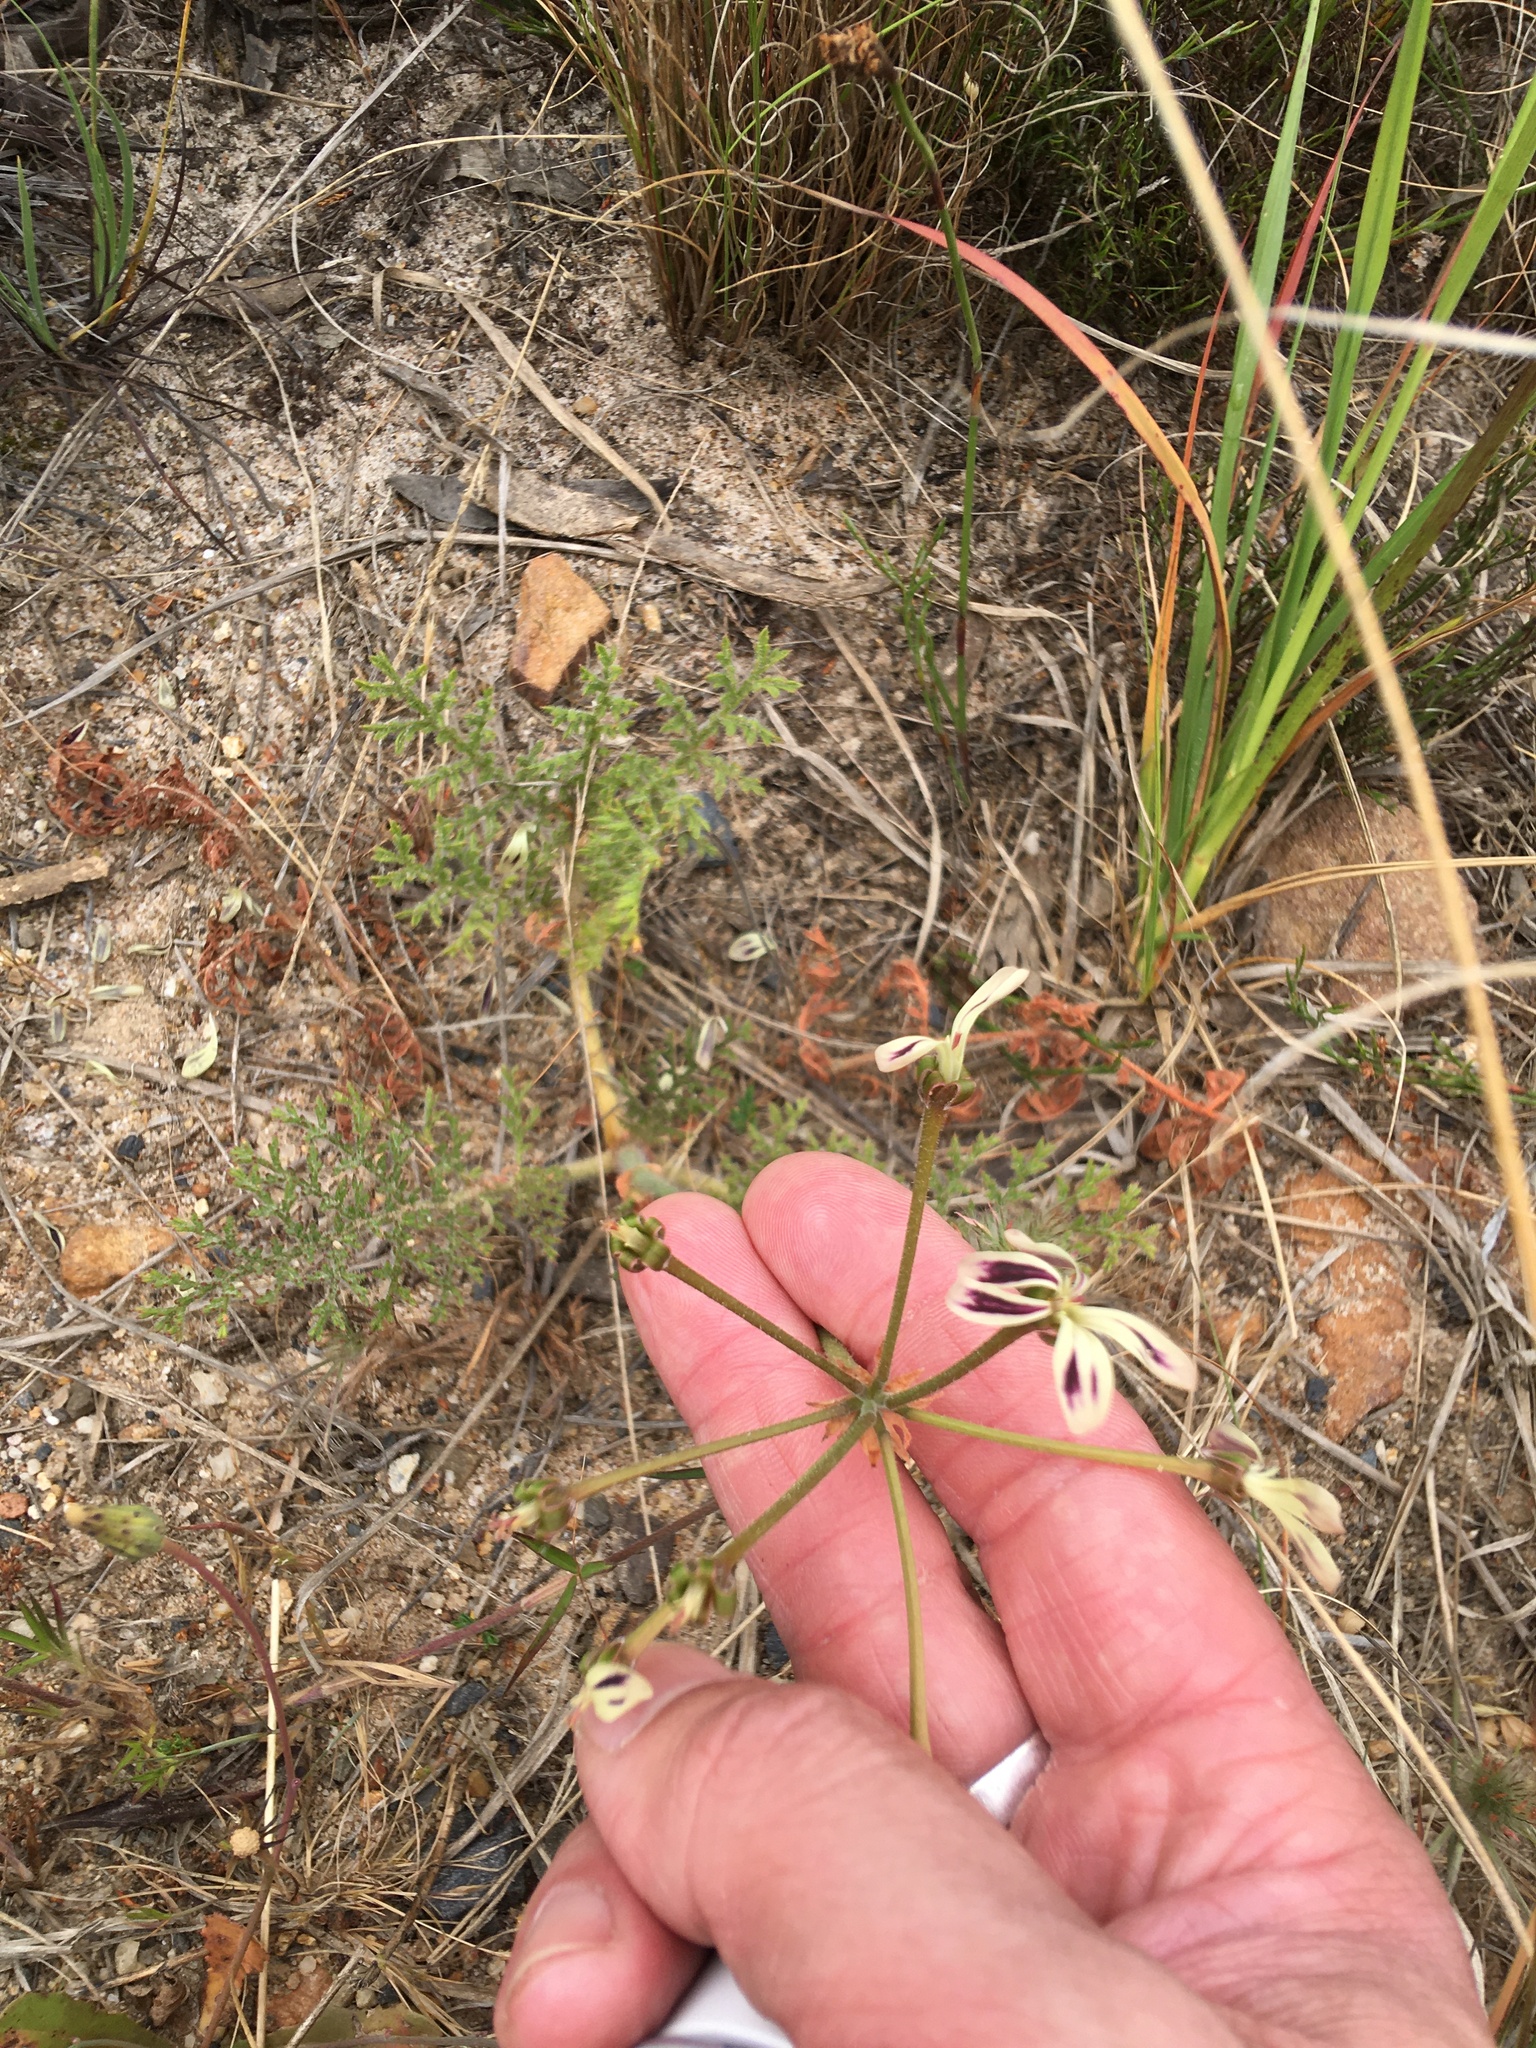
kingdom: Plantae
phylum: Tracheophyta
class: Magnoliopsida
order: Geraniales
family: Geraniaceae
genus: Pelargonium
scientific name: Pelargonium triste
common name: Night-scent pelargonium
